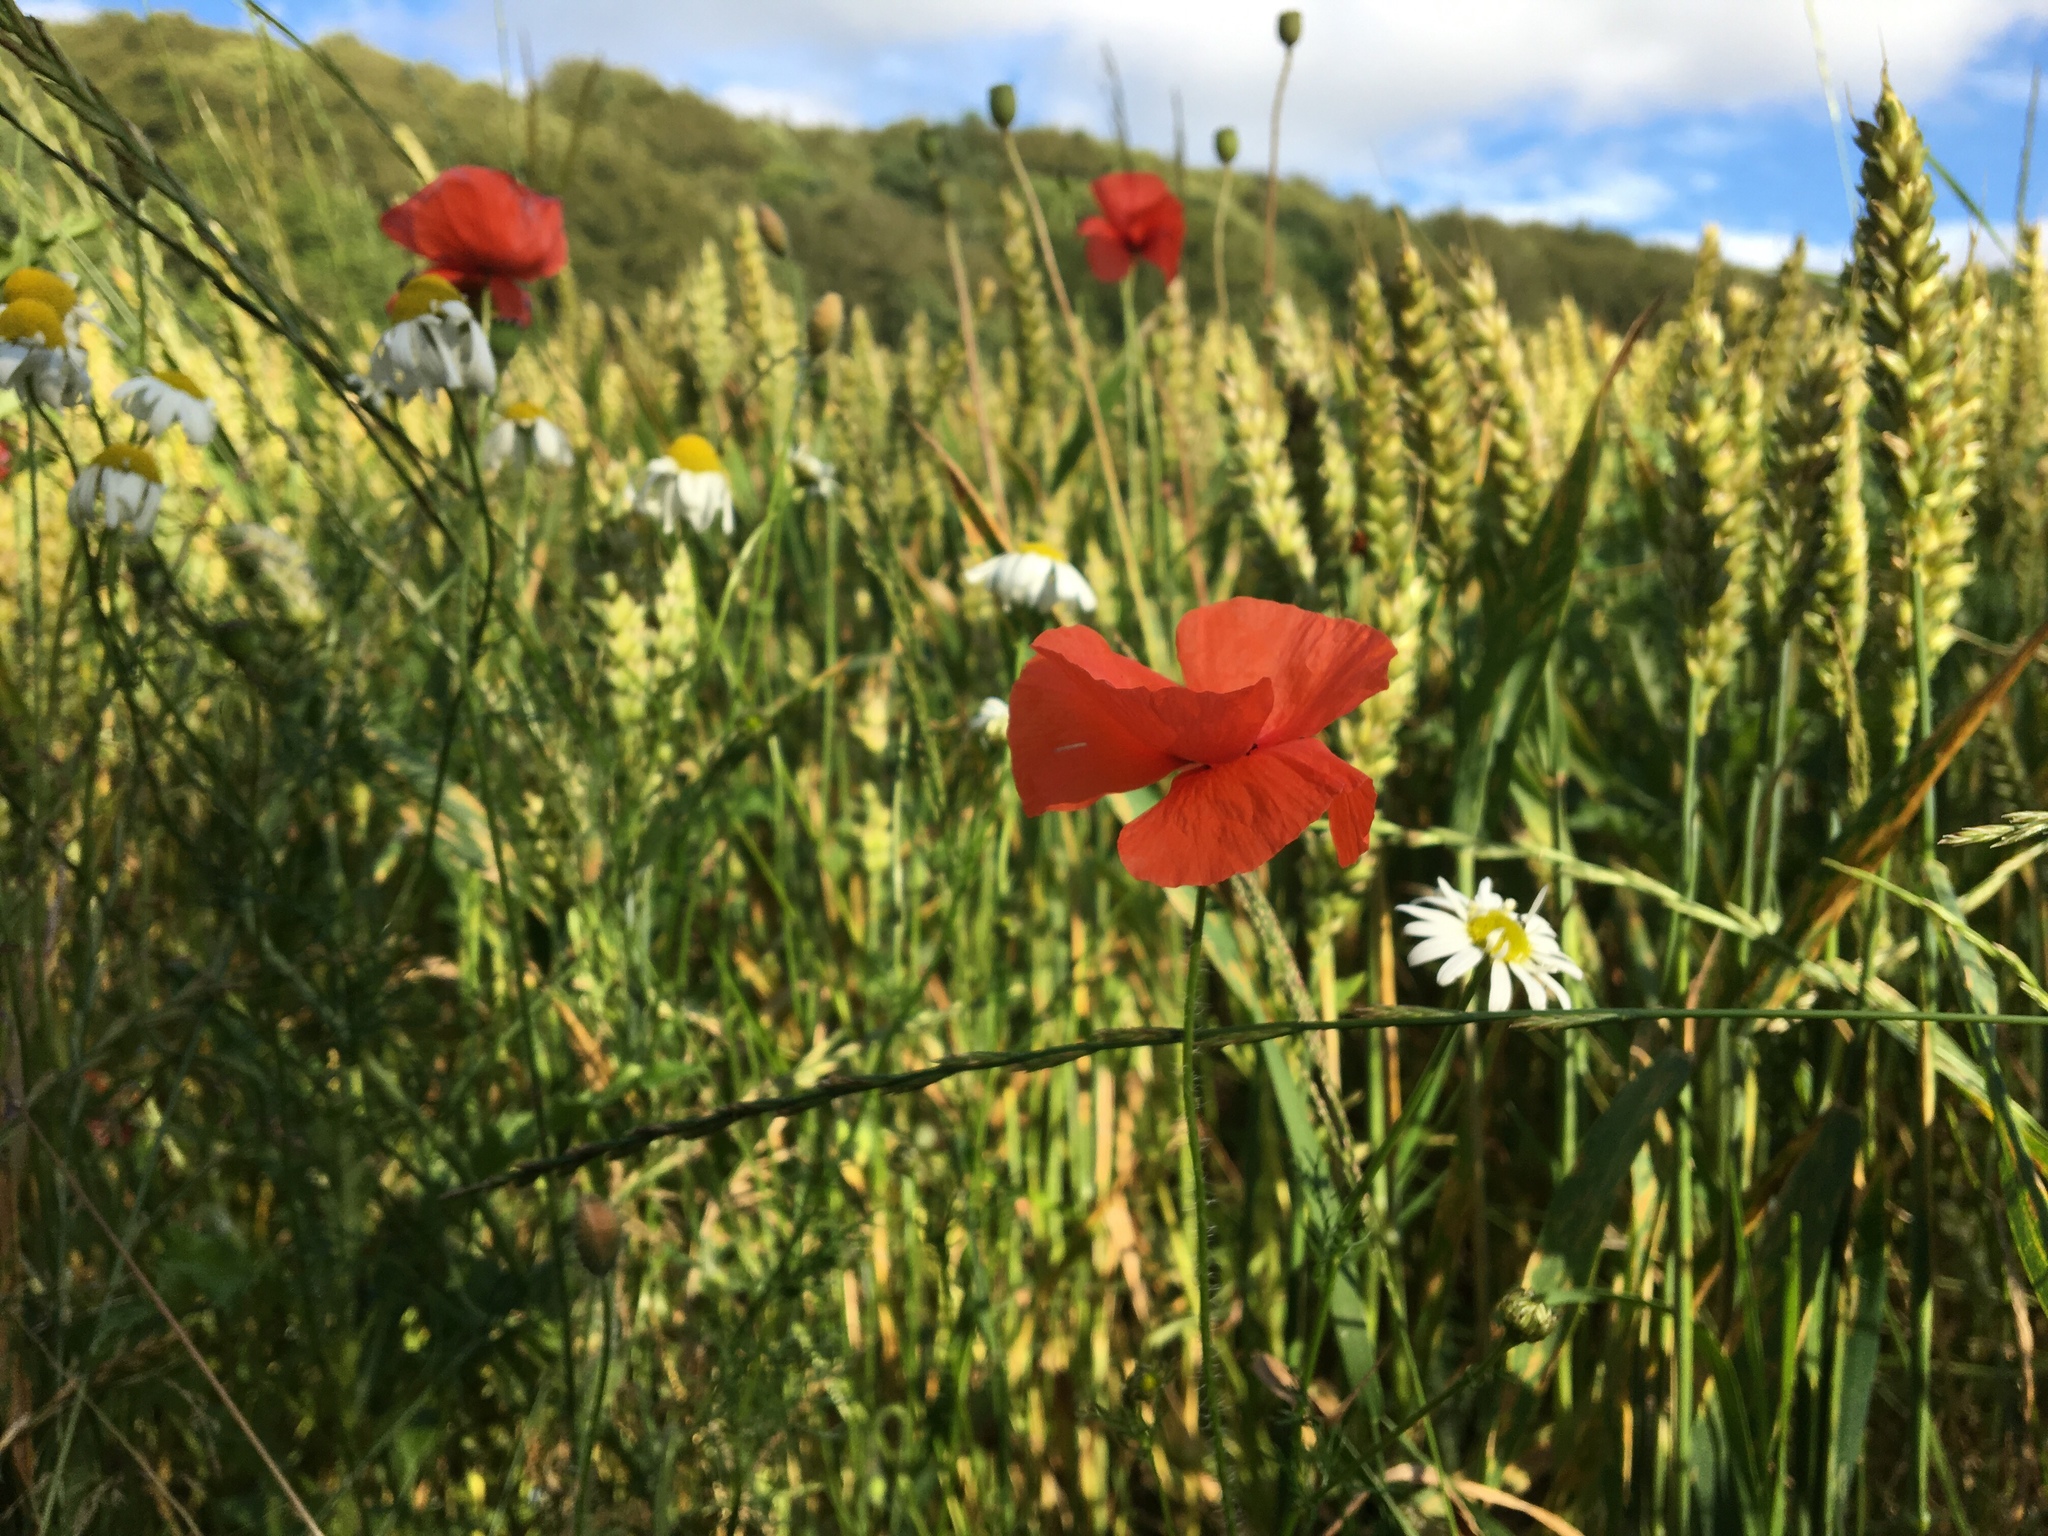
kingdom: Plantae
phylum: Tracheophyta
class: Magnoliopsida
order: Ranunculales
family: Papaveraceae
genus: Papaver
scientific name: Papaver rhoeas
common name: Corn poppy
